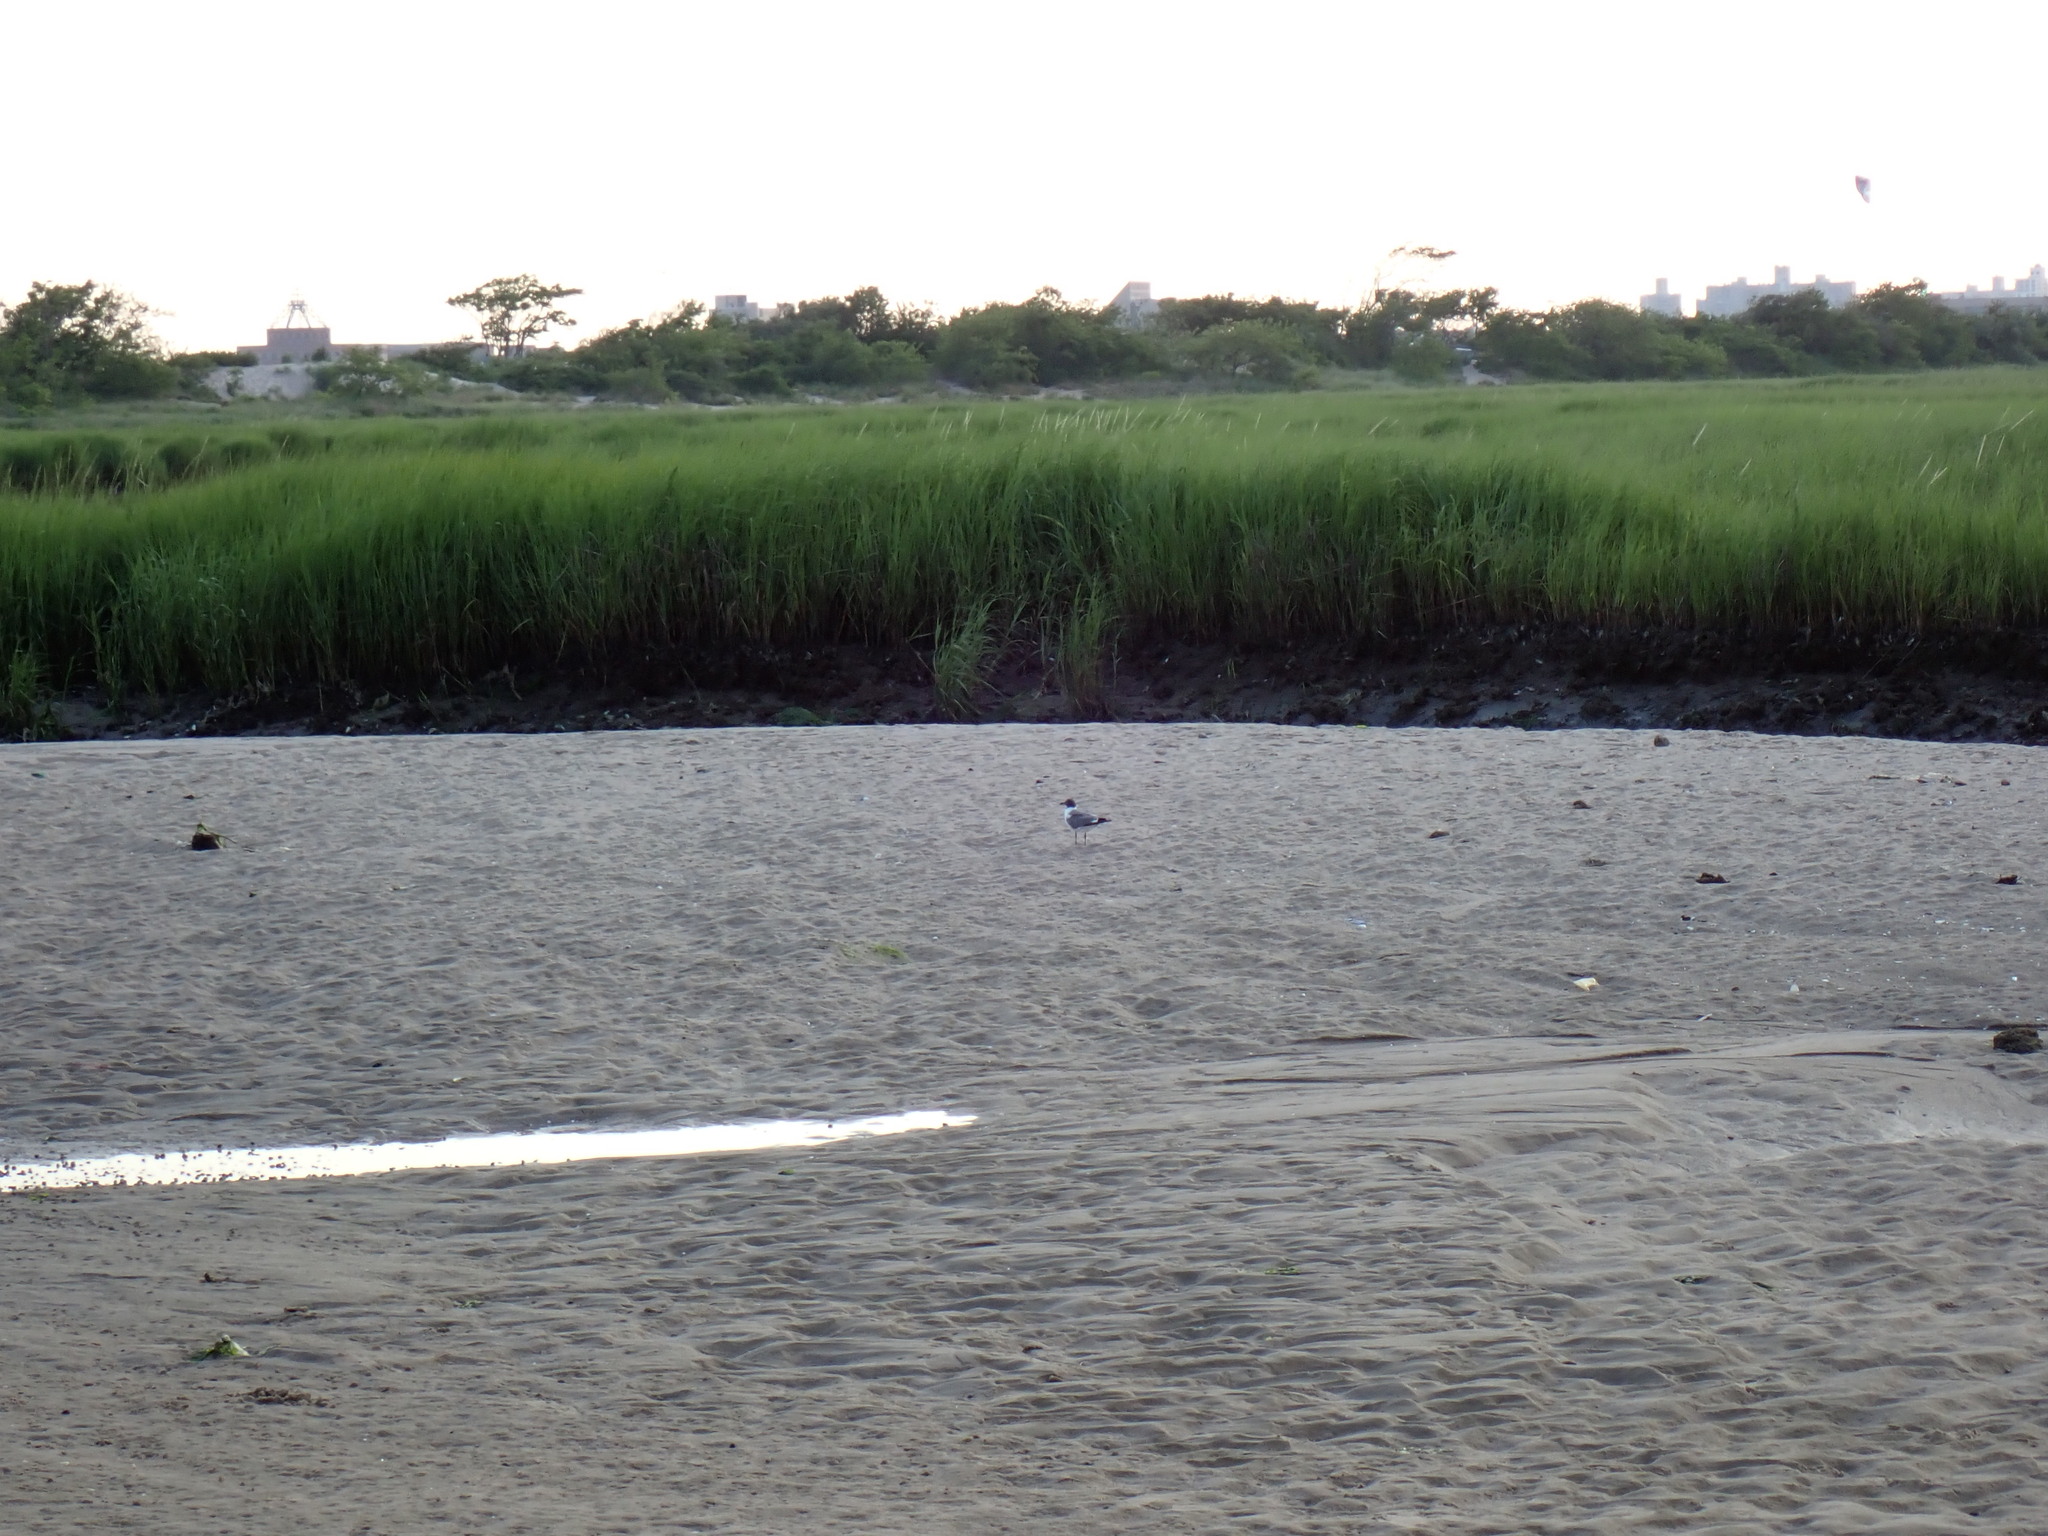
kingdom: Animalia
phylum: Chordata
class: Aves
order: Charadriiformes
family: Laridae
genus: Leucophaeus
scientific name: Leucophaeus atricilla
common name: Laughing gull
